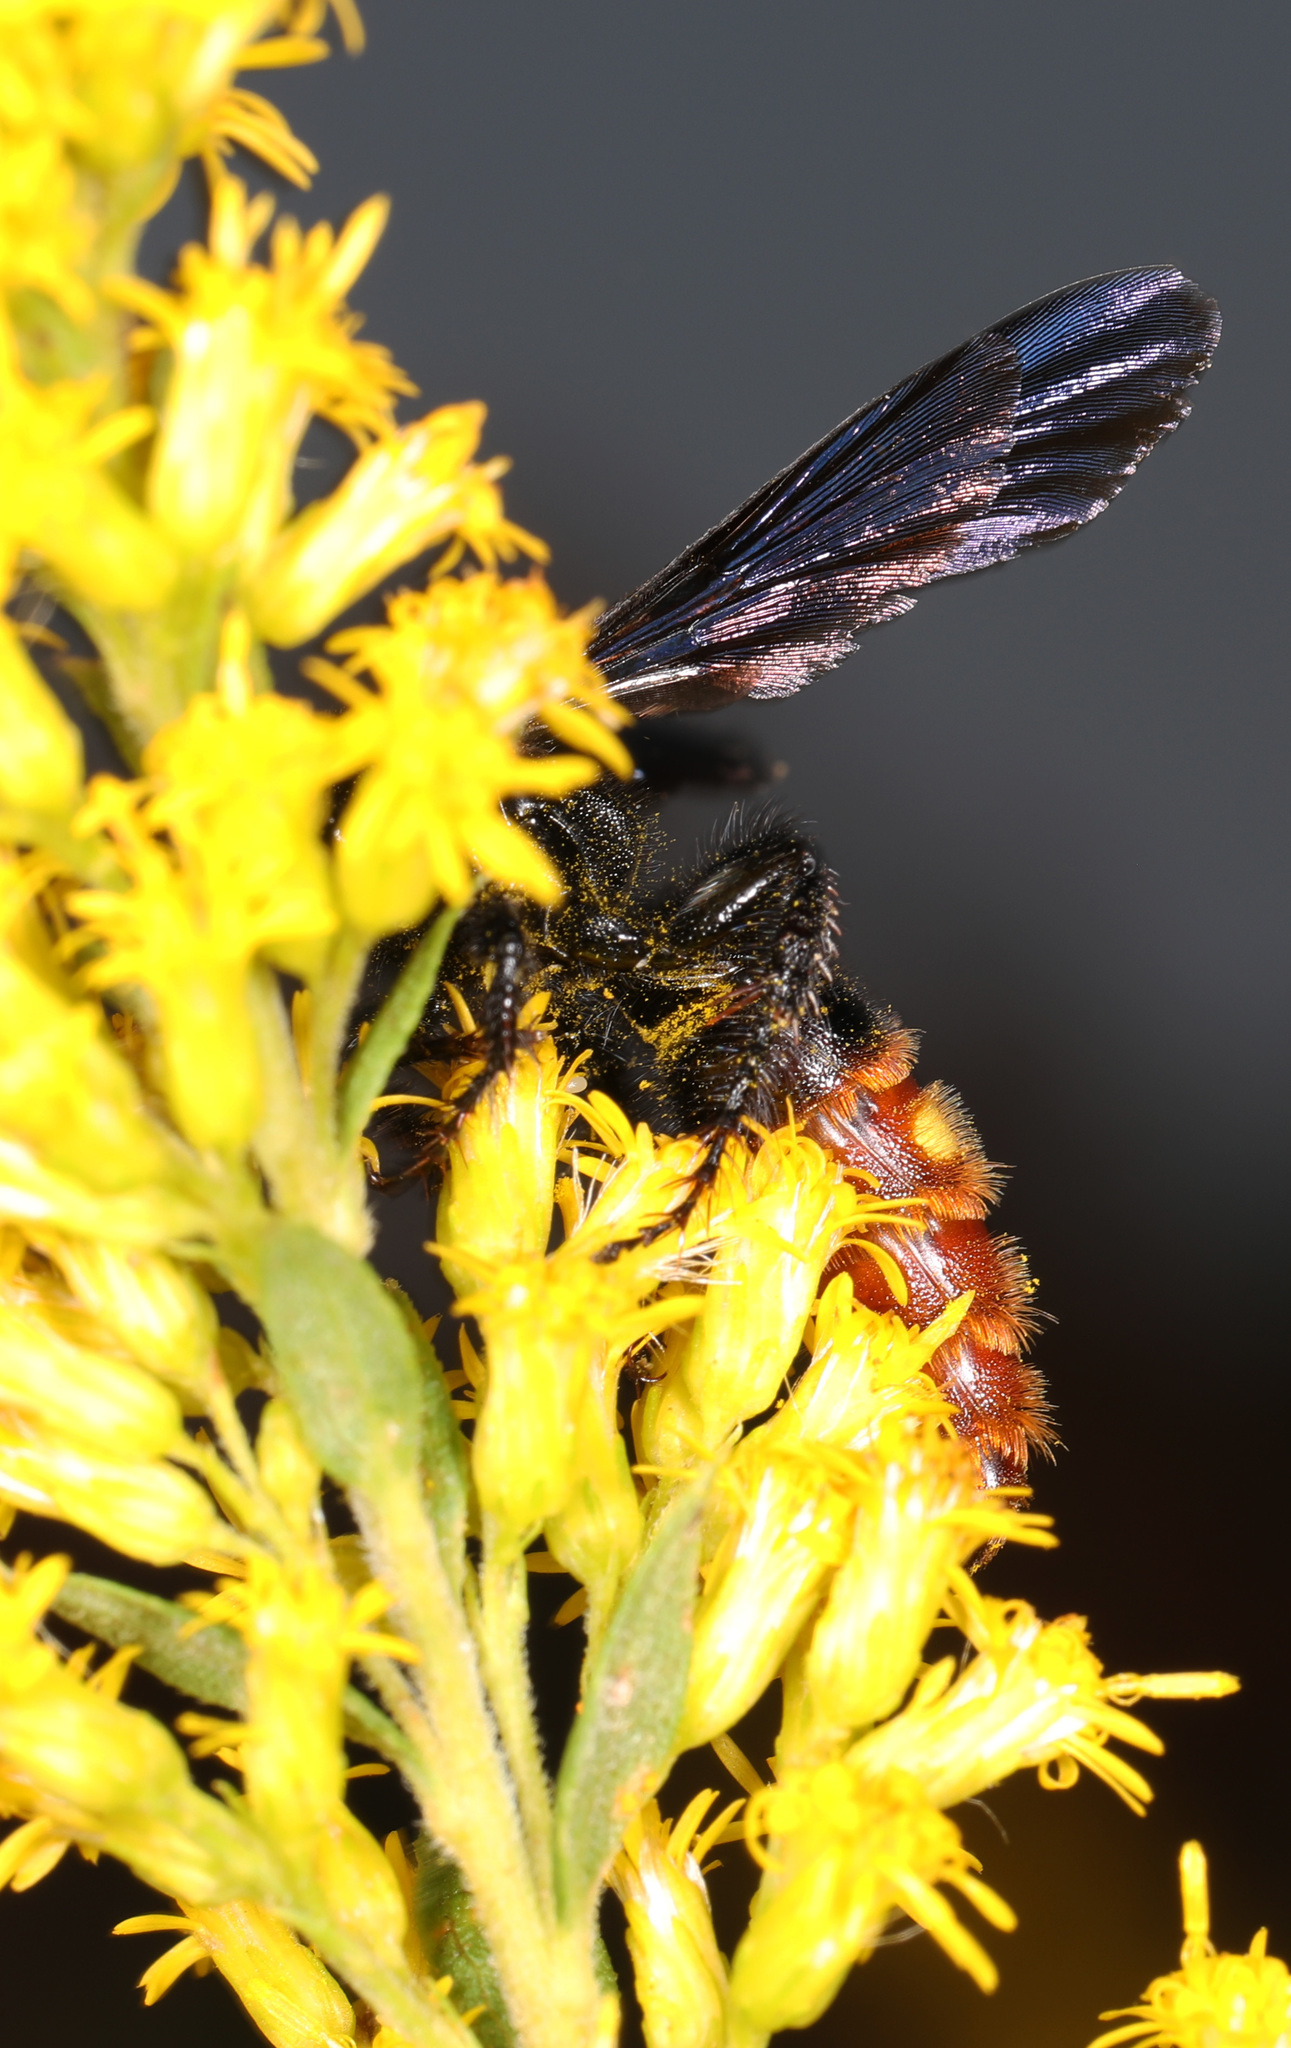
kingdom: Animalia
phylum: Arthropoda
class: Insecta
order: Hymenoptera
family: Scoliidae
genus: Scolia
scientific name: Scolia dubia
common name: Blue-winged scoliid wasp
